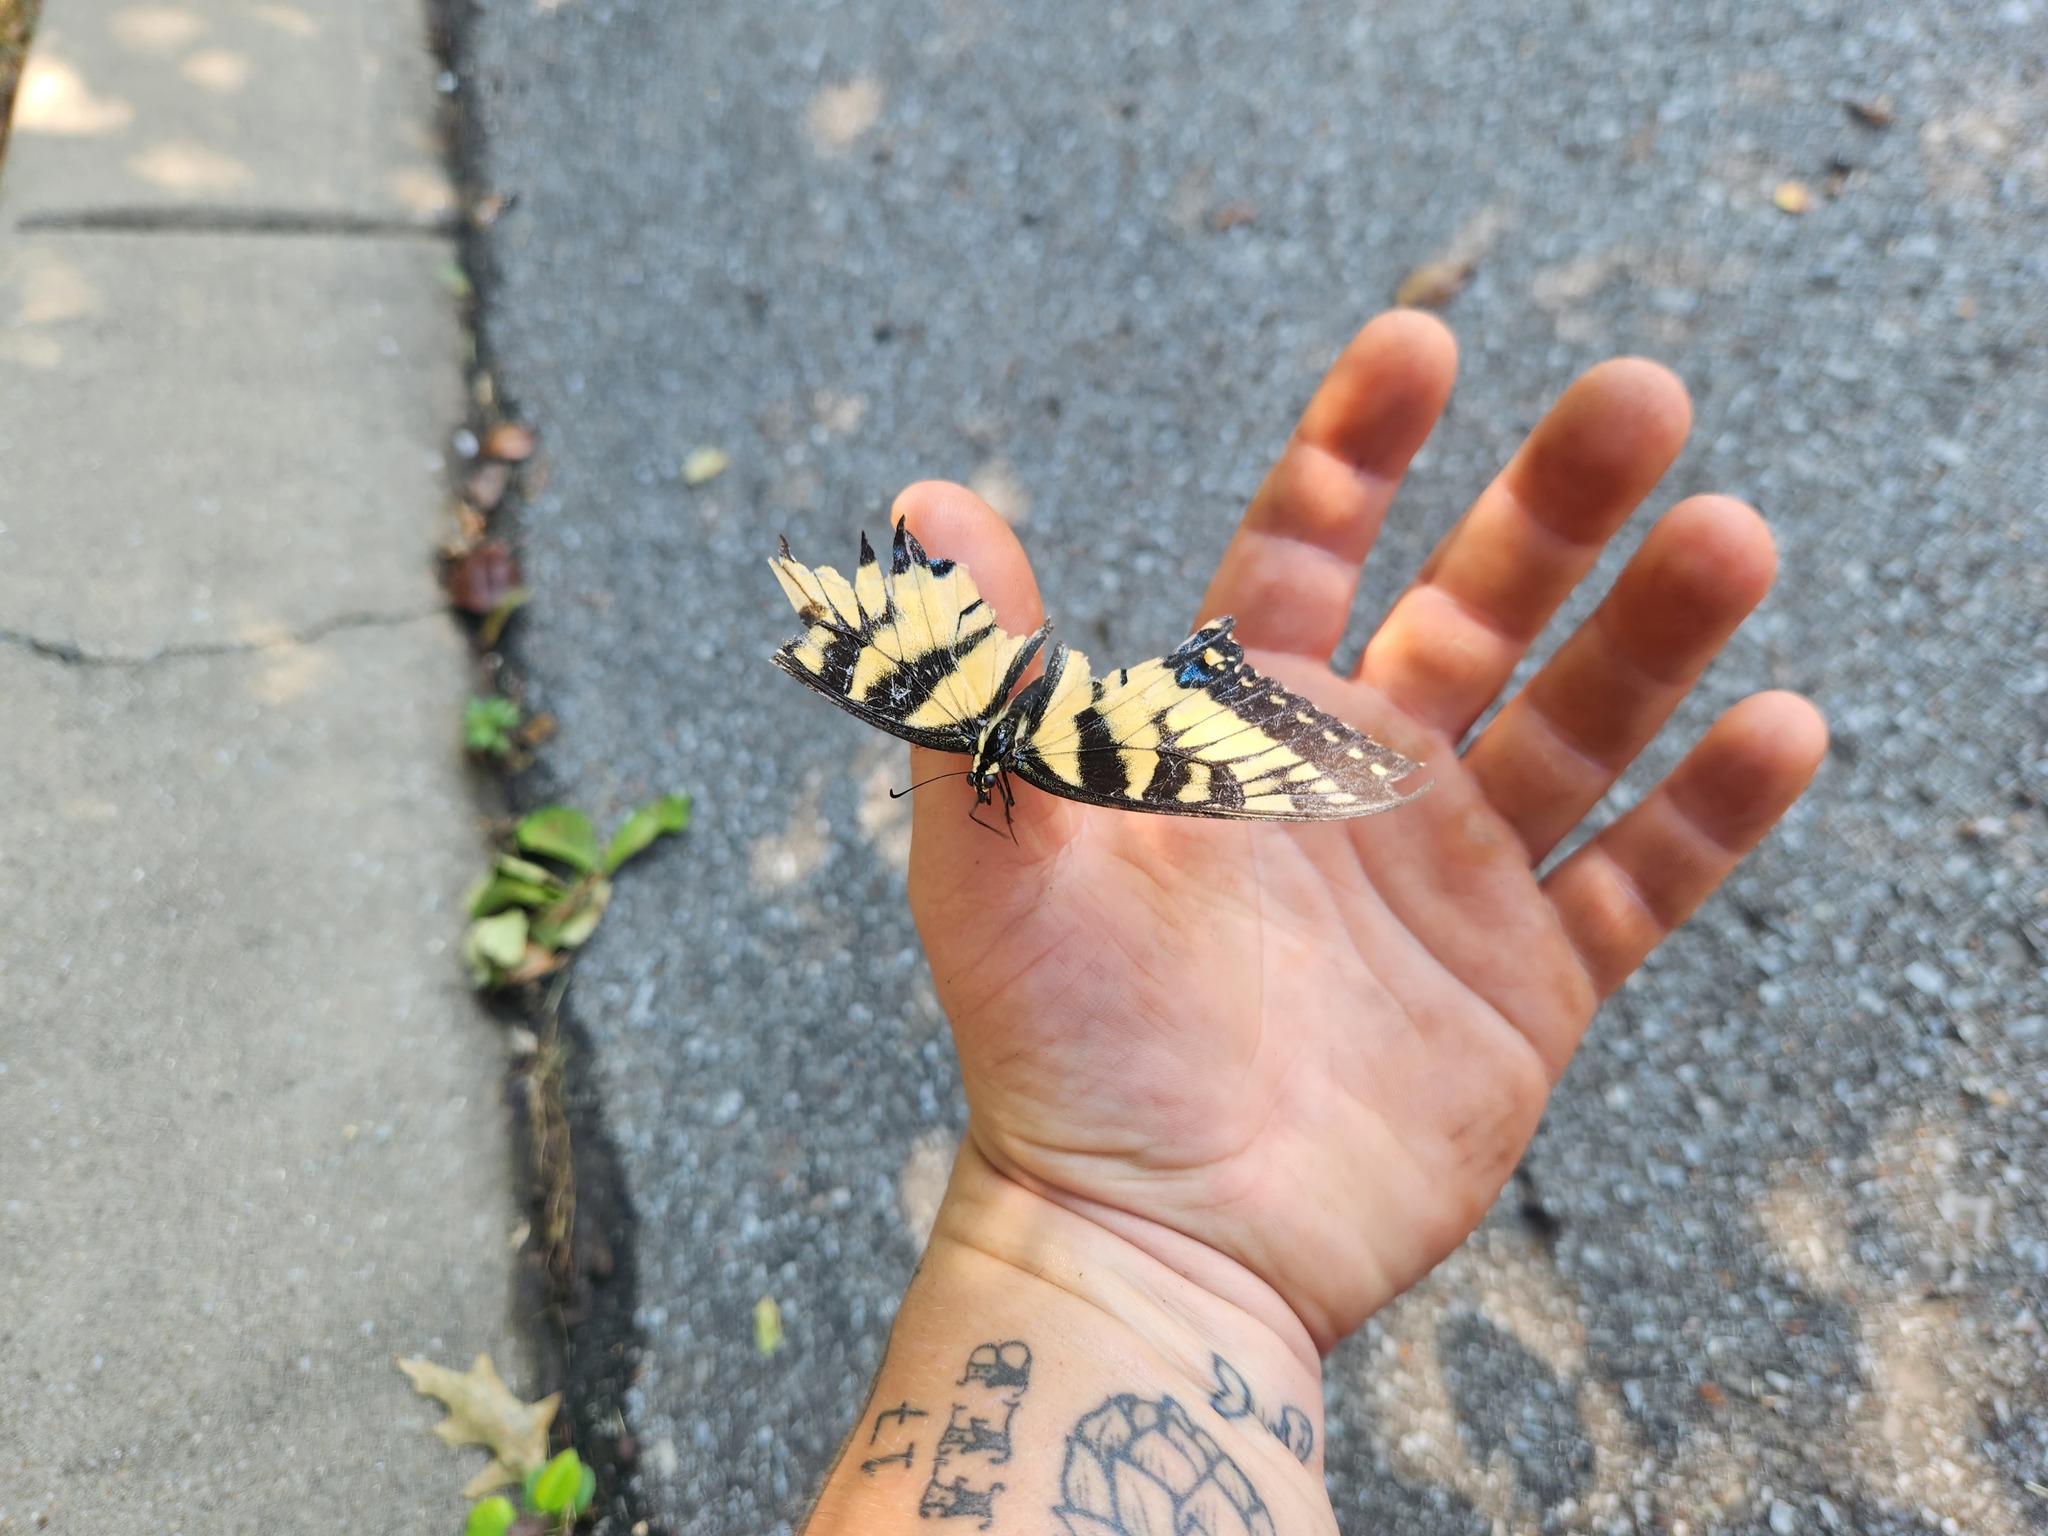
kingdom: Animalia
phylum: Arthropoda
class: Insecta
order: Lepidoptera
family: Papilionidae
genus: Papilio
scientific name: Papilio glaucus
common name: Tiger swallowtail
